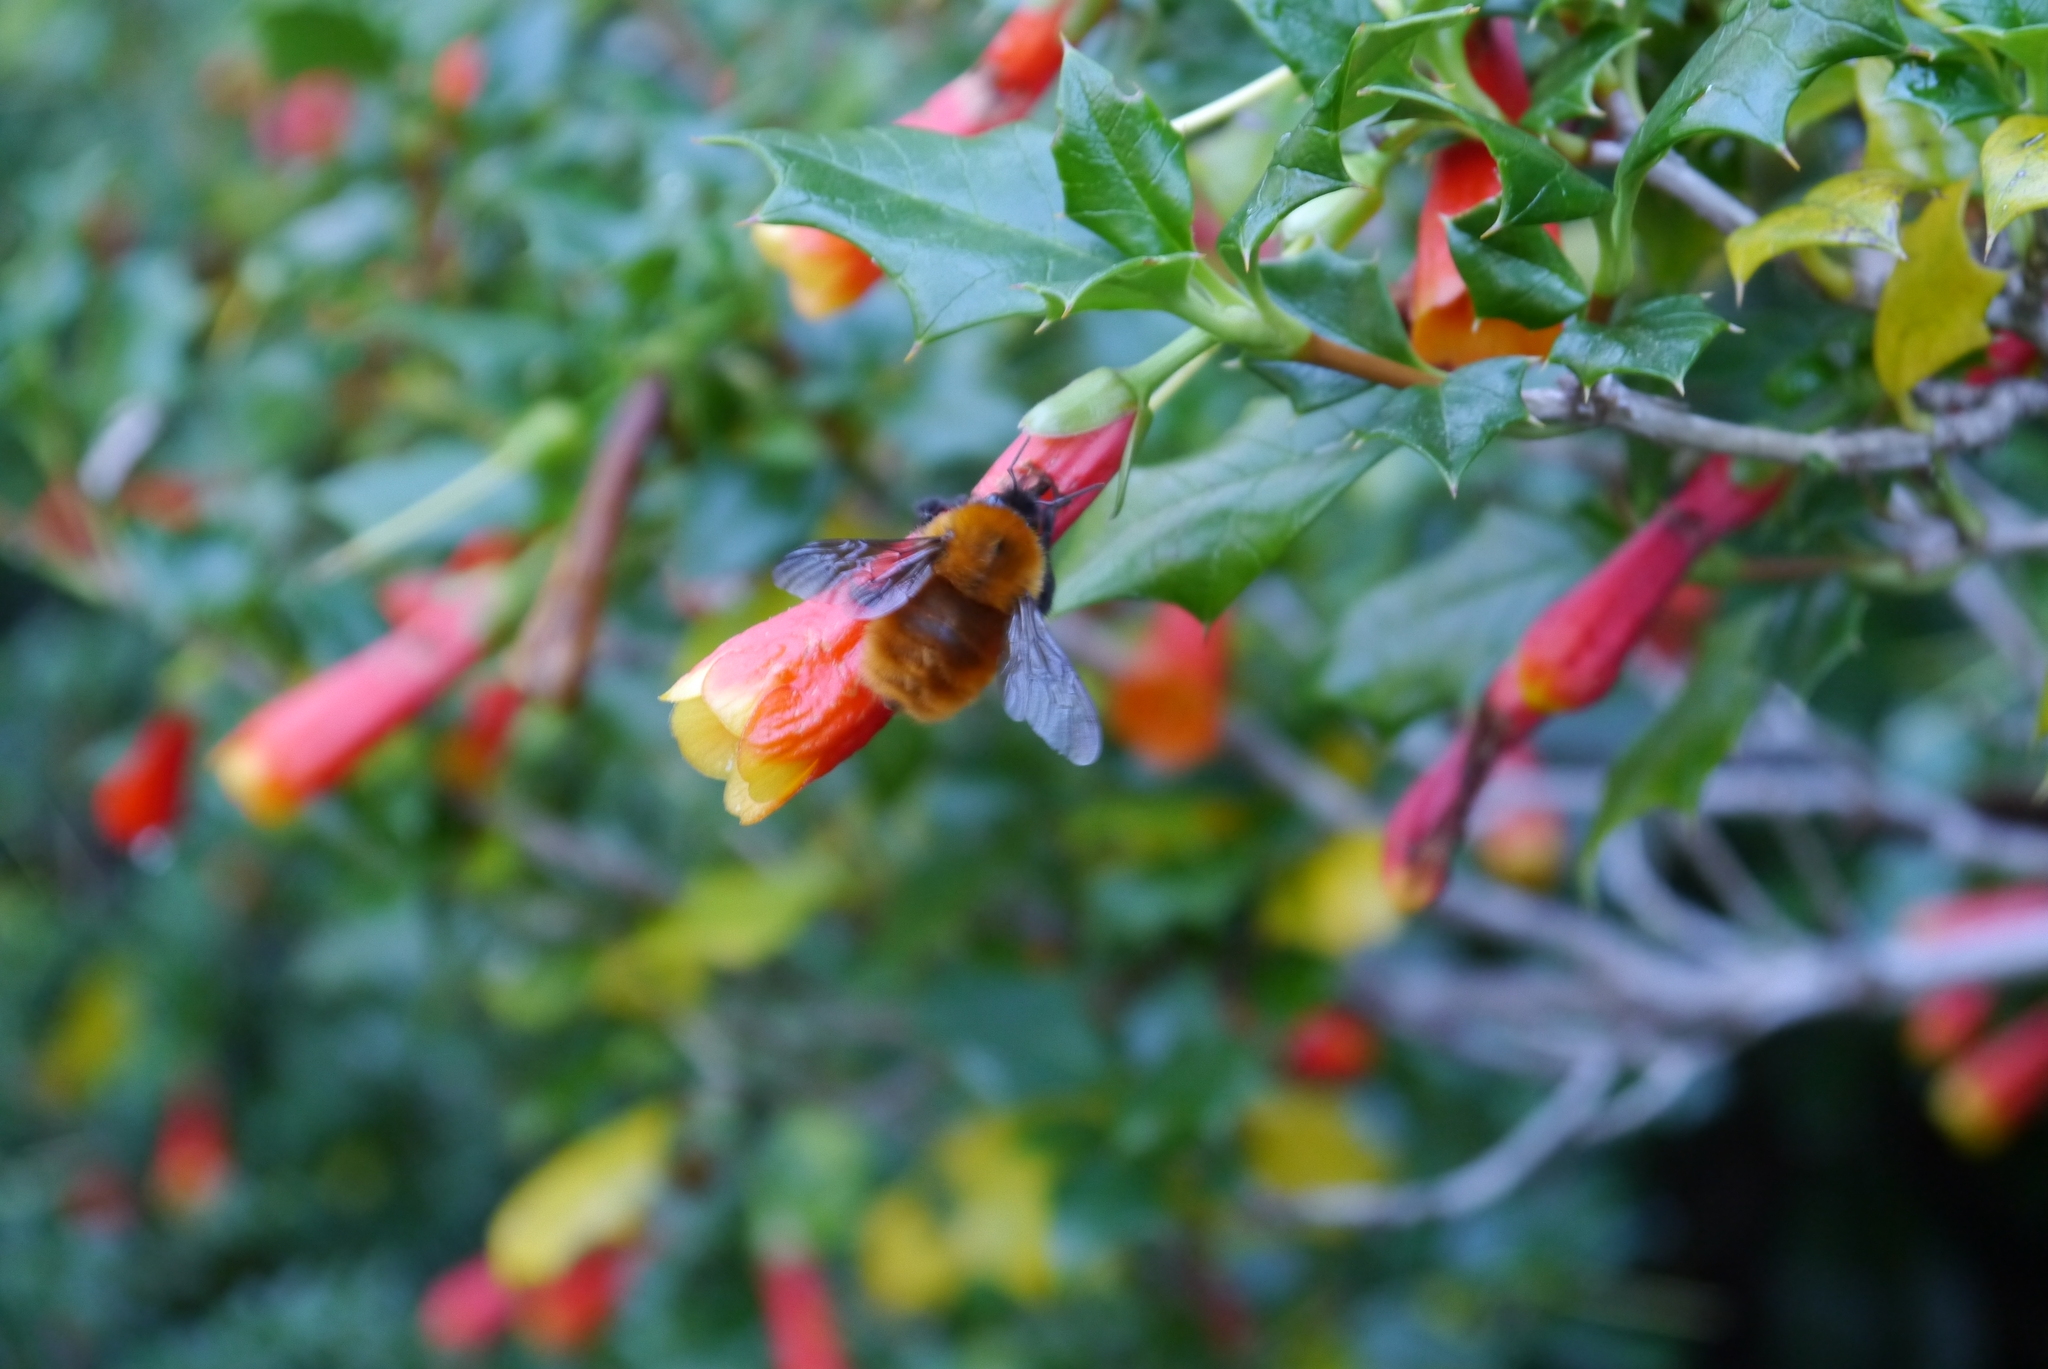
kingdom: Animalia
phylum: Arthropoda
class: Insecta
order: Hymenoptera
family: Apidae
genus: Bombus
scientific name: Bombus dahlbomii
